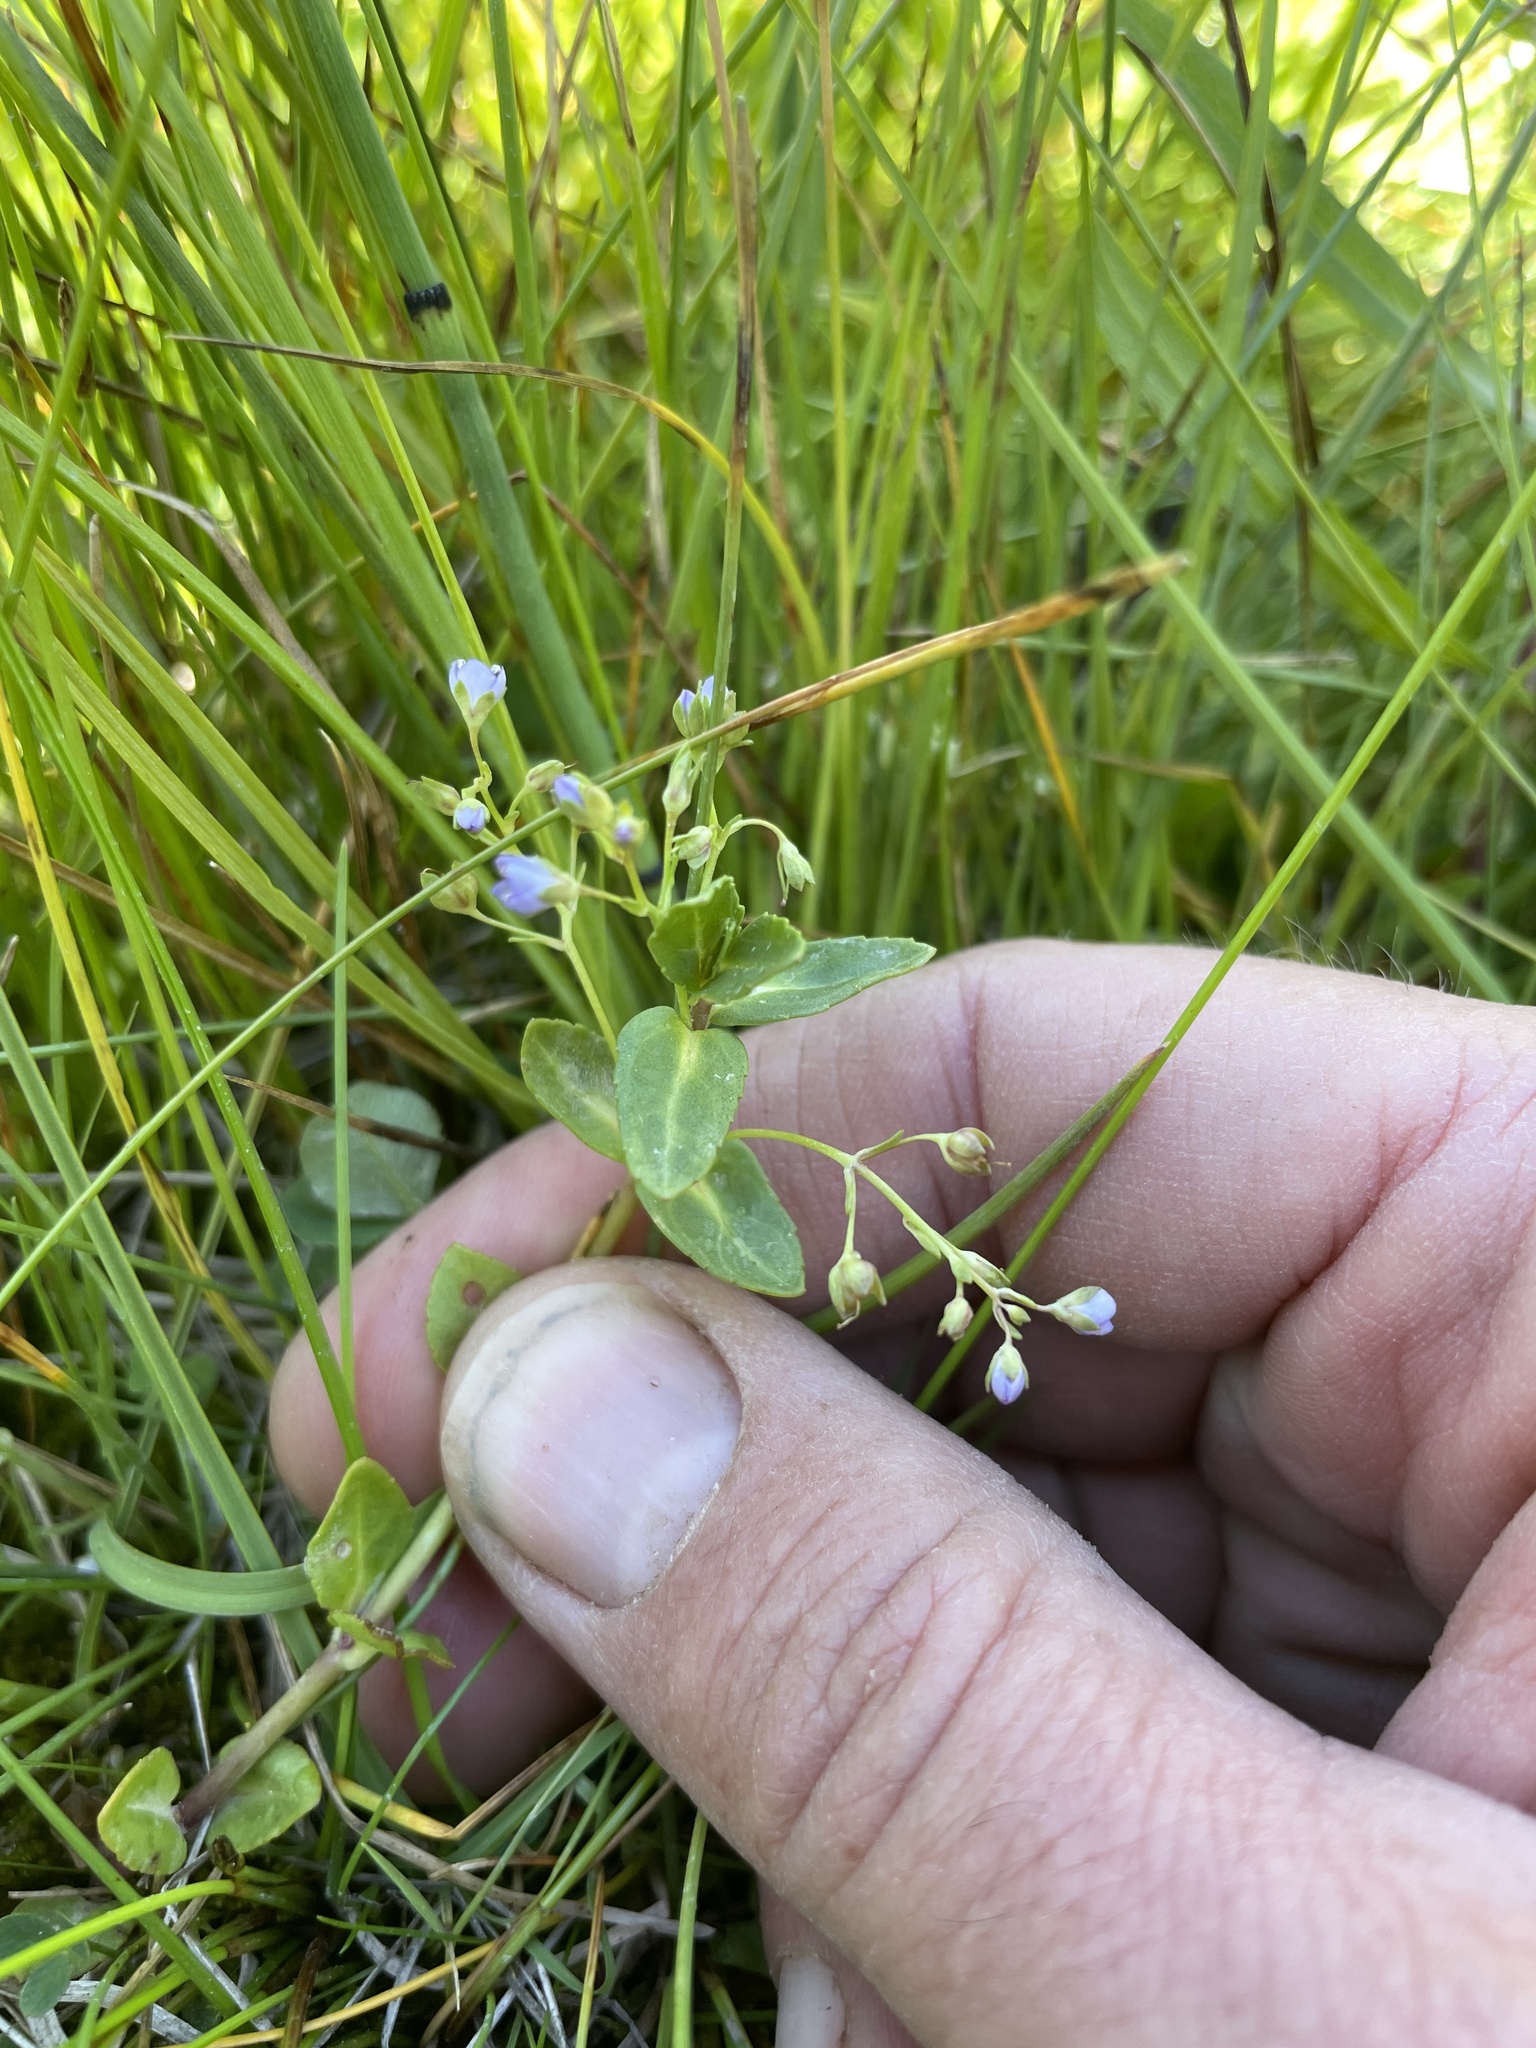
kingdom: Plantae
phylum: Tracheophyta
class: Magnoliopsida
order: Lamiales
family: Plantaginaceae
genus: Veronica
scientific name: Veronica americana
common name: American brooklime
